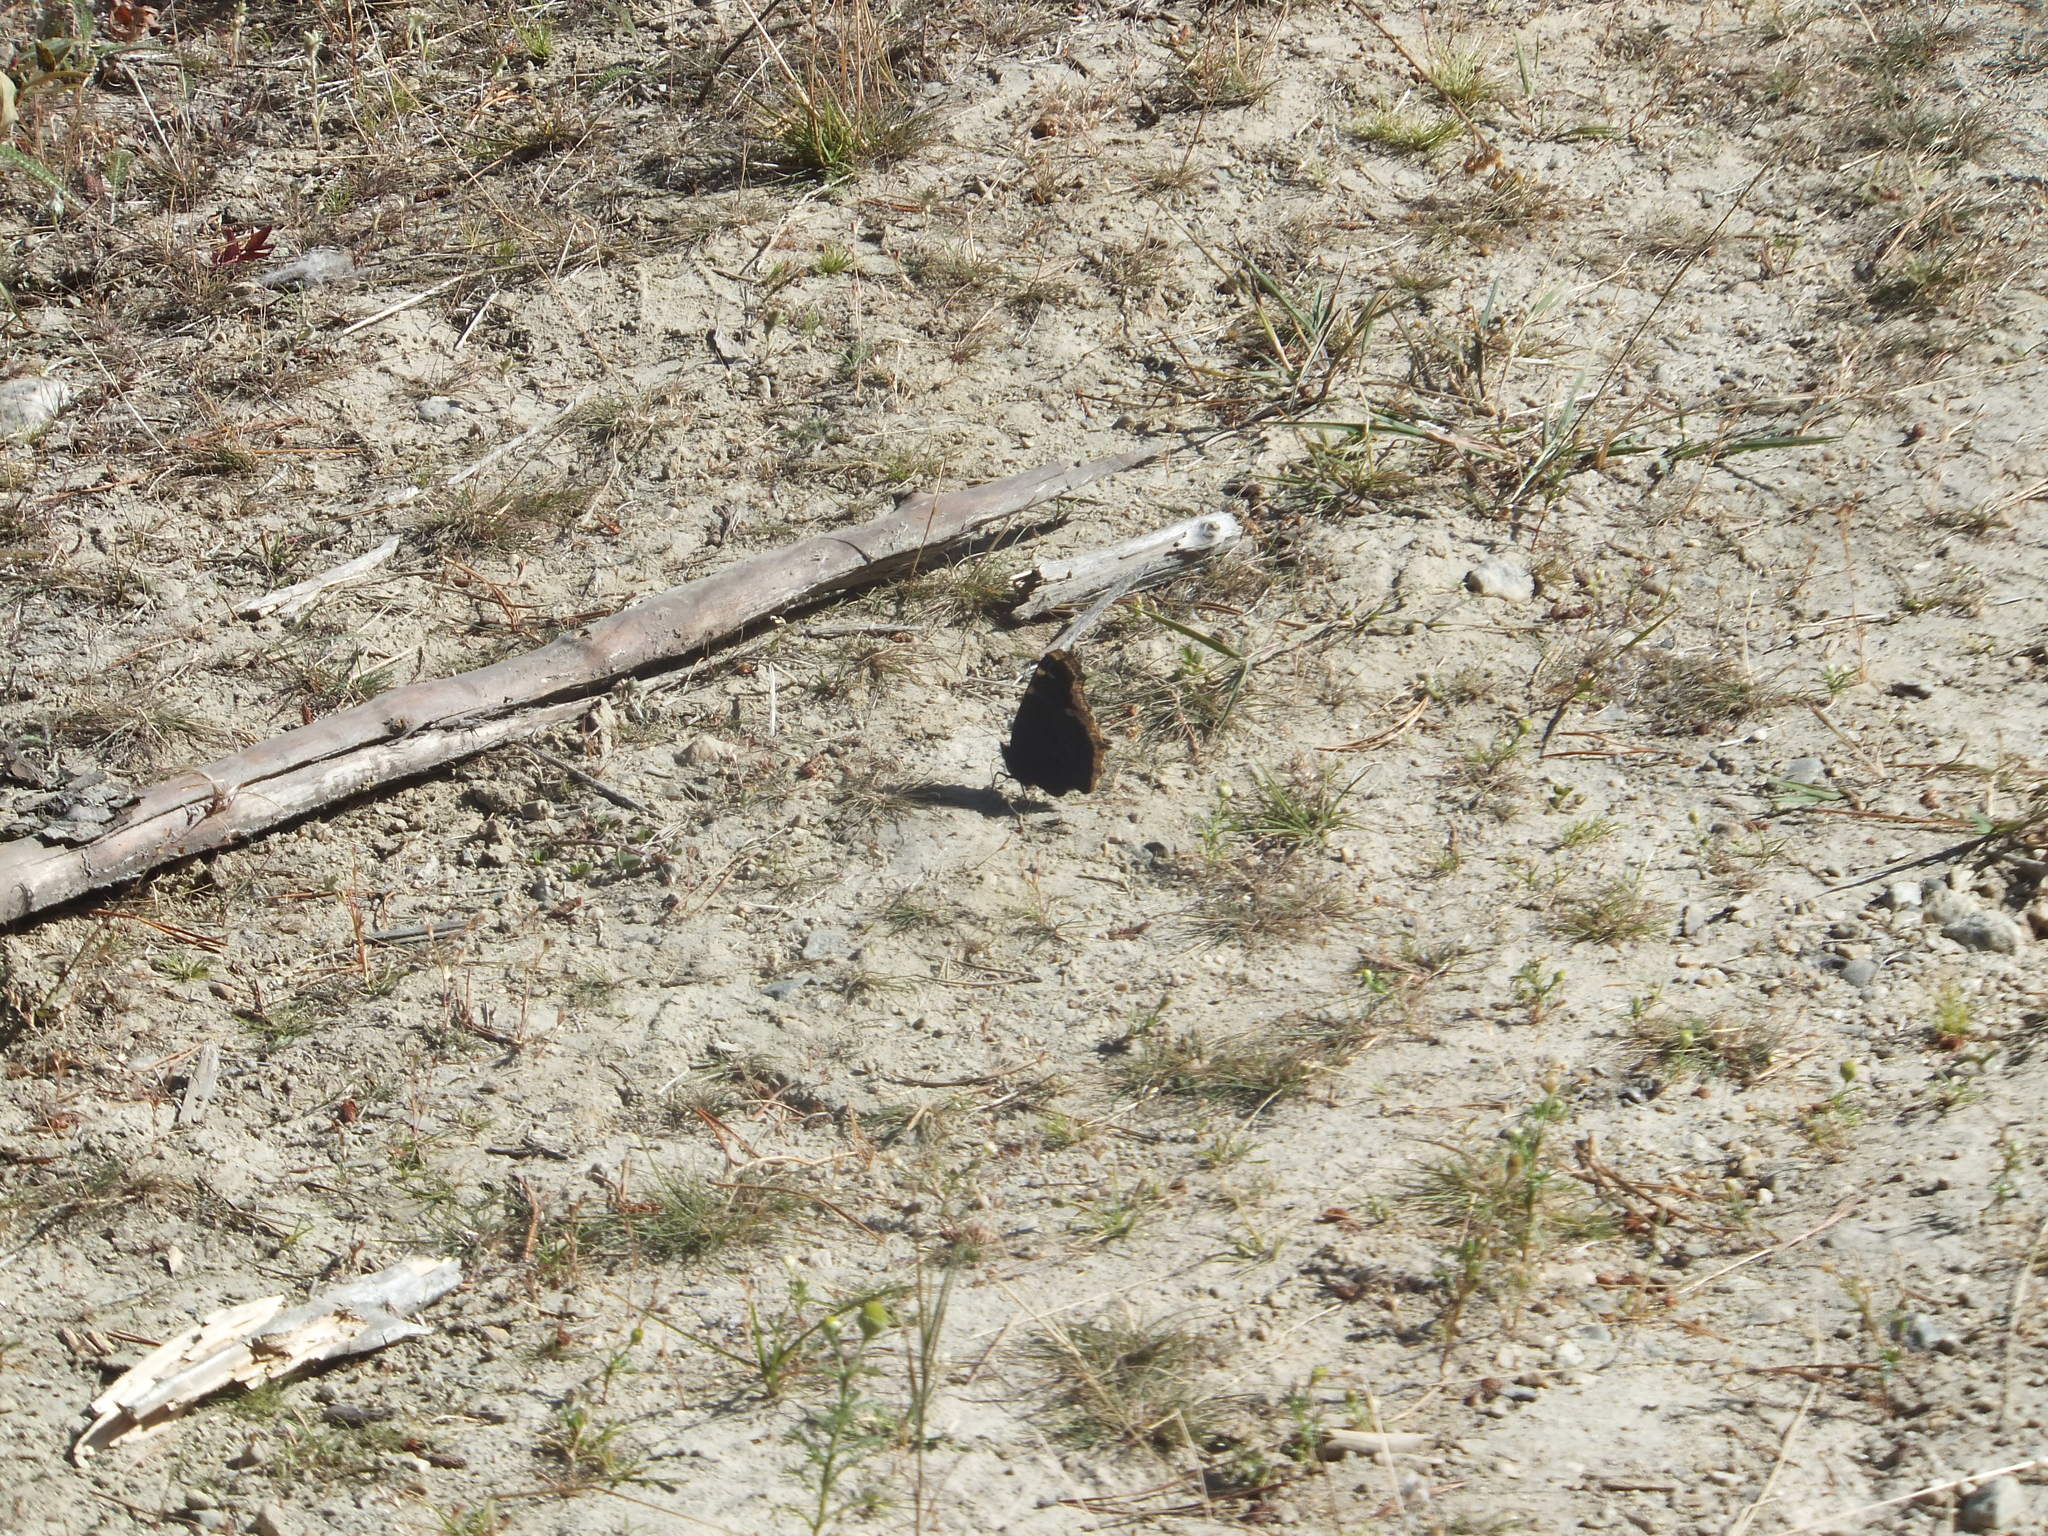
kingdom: Animalia
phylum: Arthropoda
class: Insecta
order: Lepidoptera
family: Nymphalidae
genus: Nymphalis
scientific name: Nymphalis antiopa
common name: Camberwell beauty
